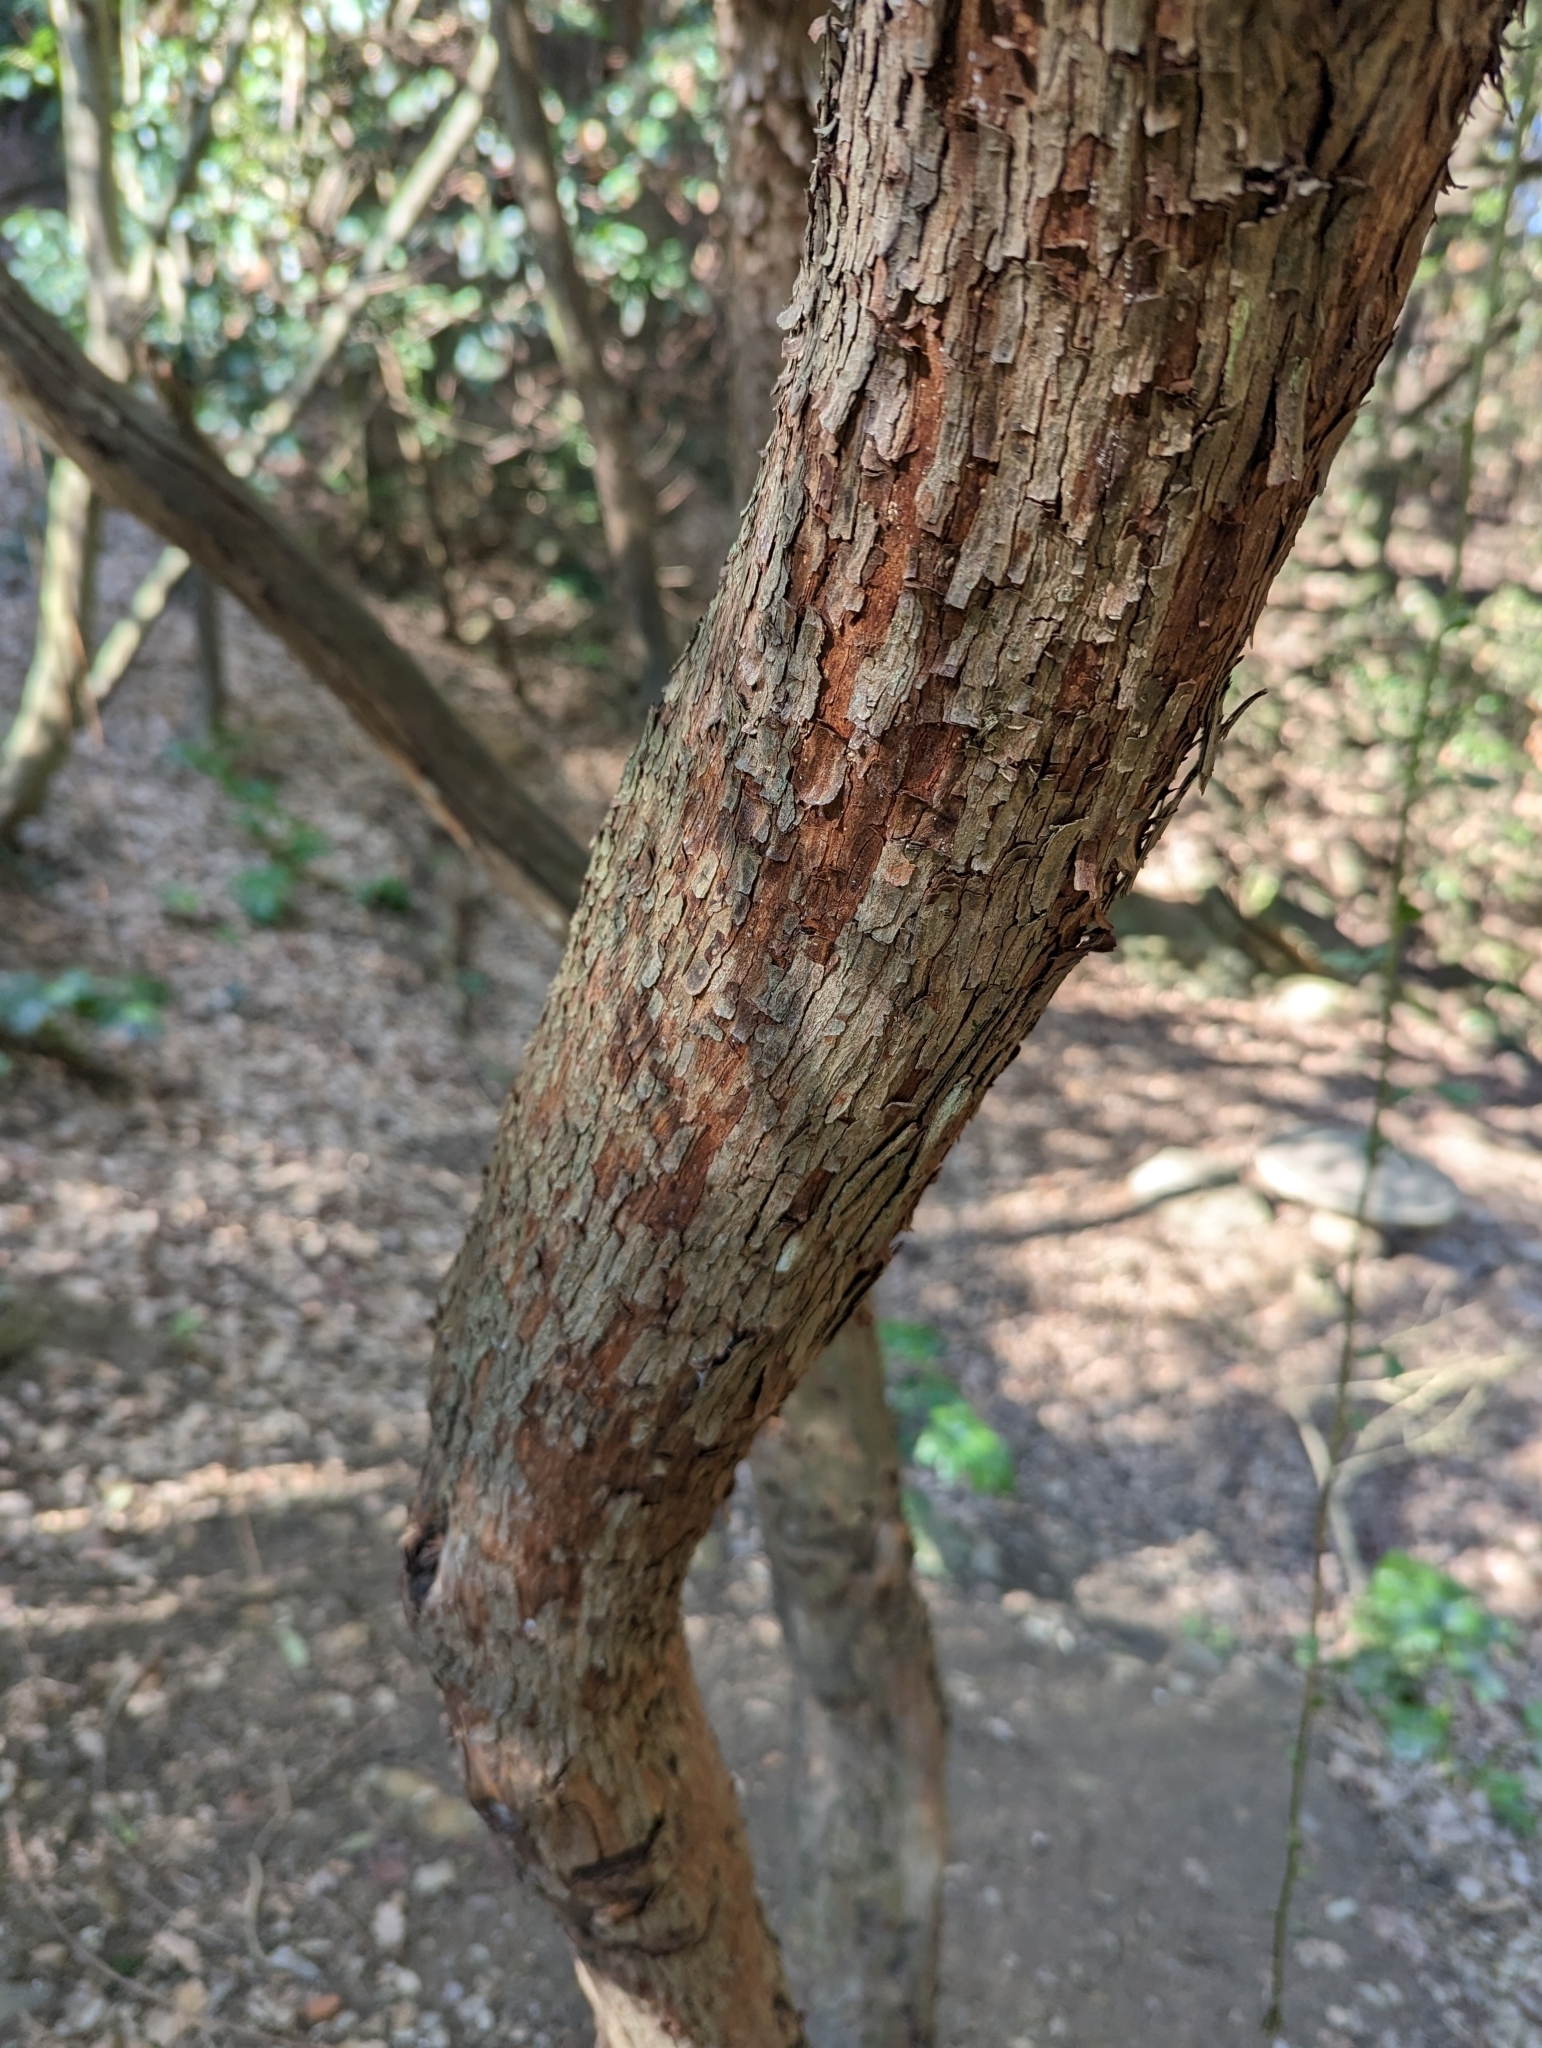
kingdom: Plantae
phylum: Tracheophyta
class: Magnoliopsida
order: Ericales
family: Ericaceae
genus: Arbutus
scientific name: Arbutus unedo
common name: Strawberry-tree
